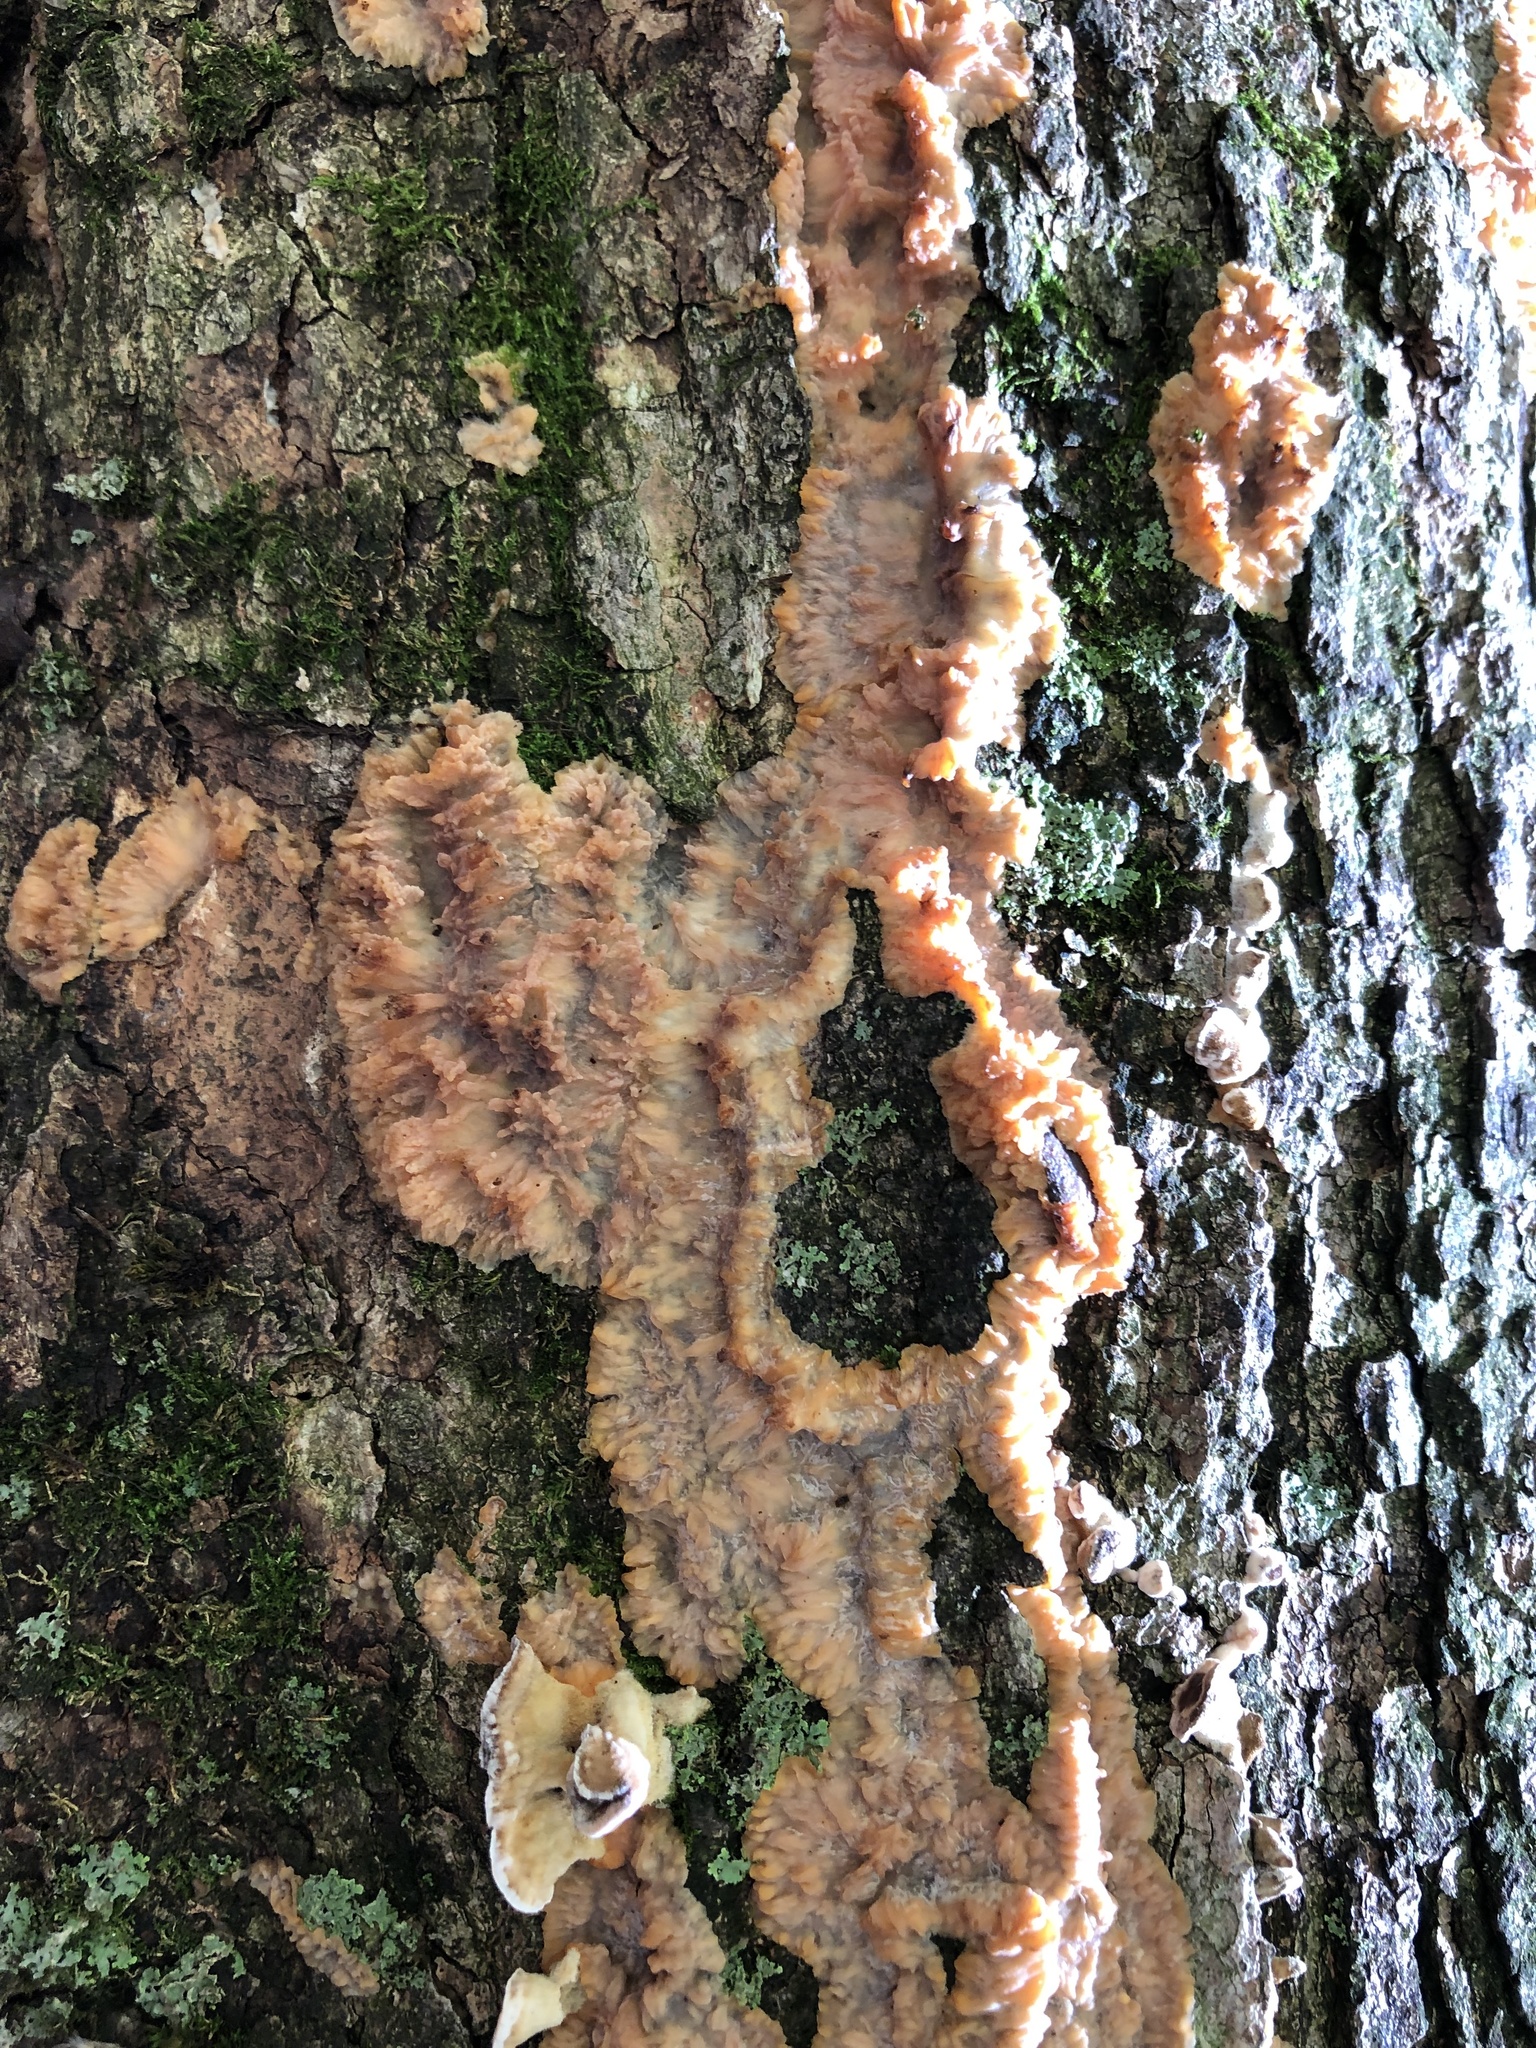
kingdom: Fungi
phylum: Basidiomycota
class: Agaricomycetes
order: Polyporales
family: Meruliaceae
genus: Phlebia
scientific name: Phlebia radiata
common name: Wrinkled crust
